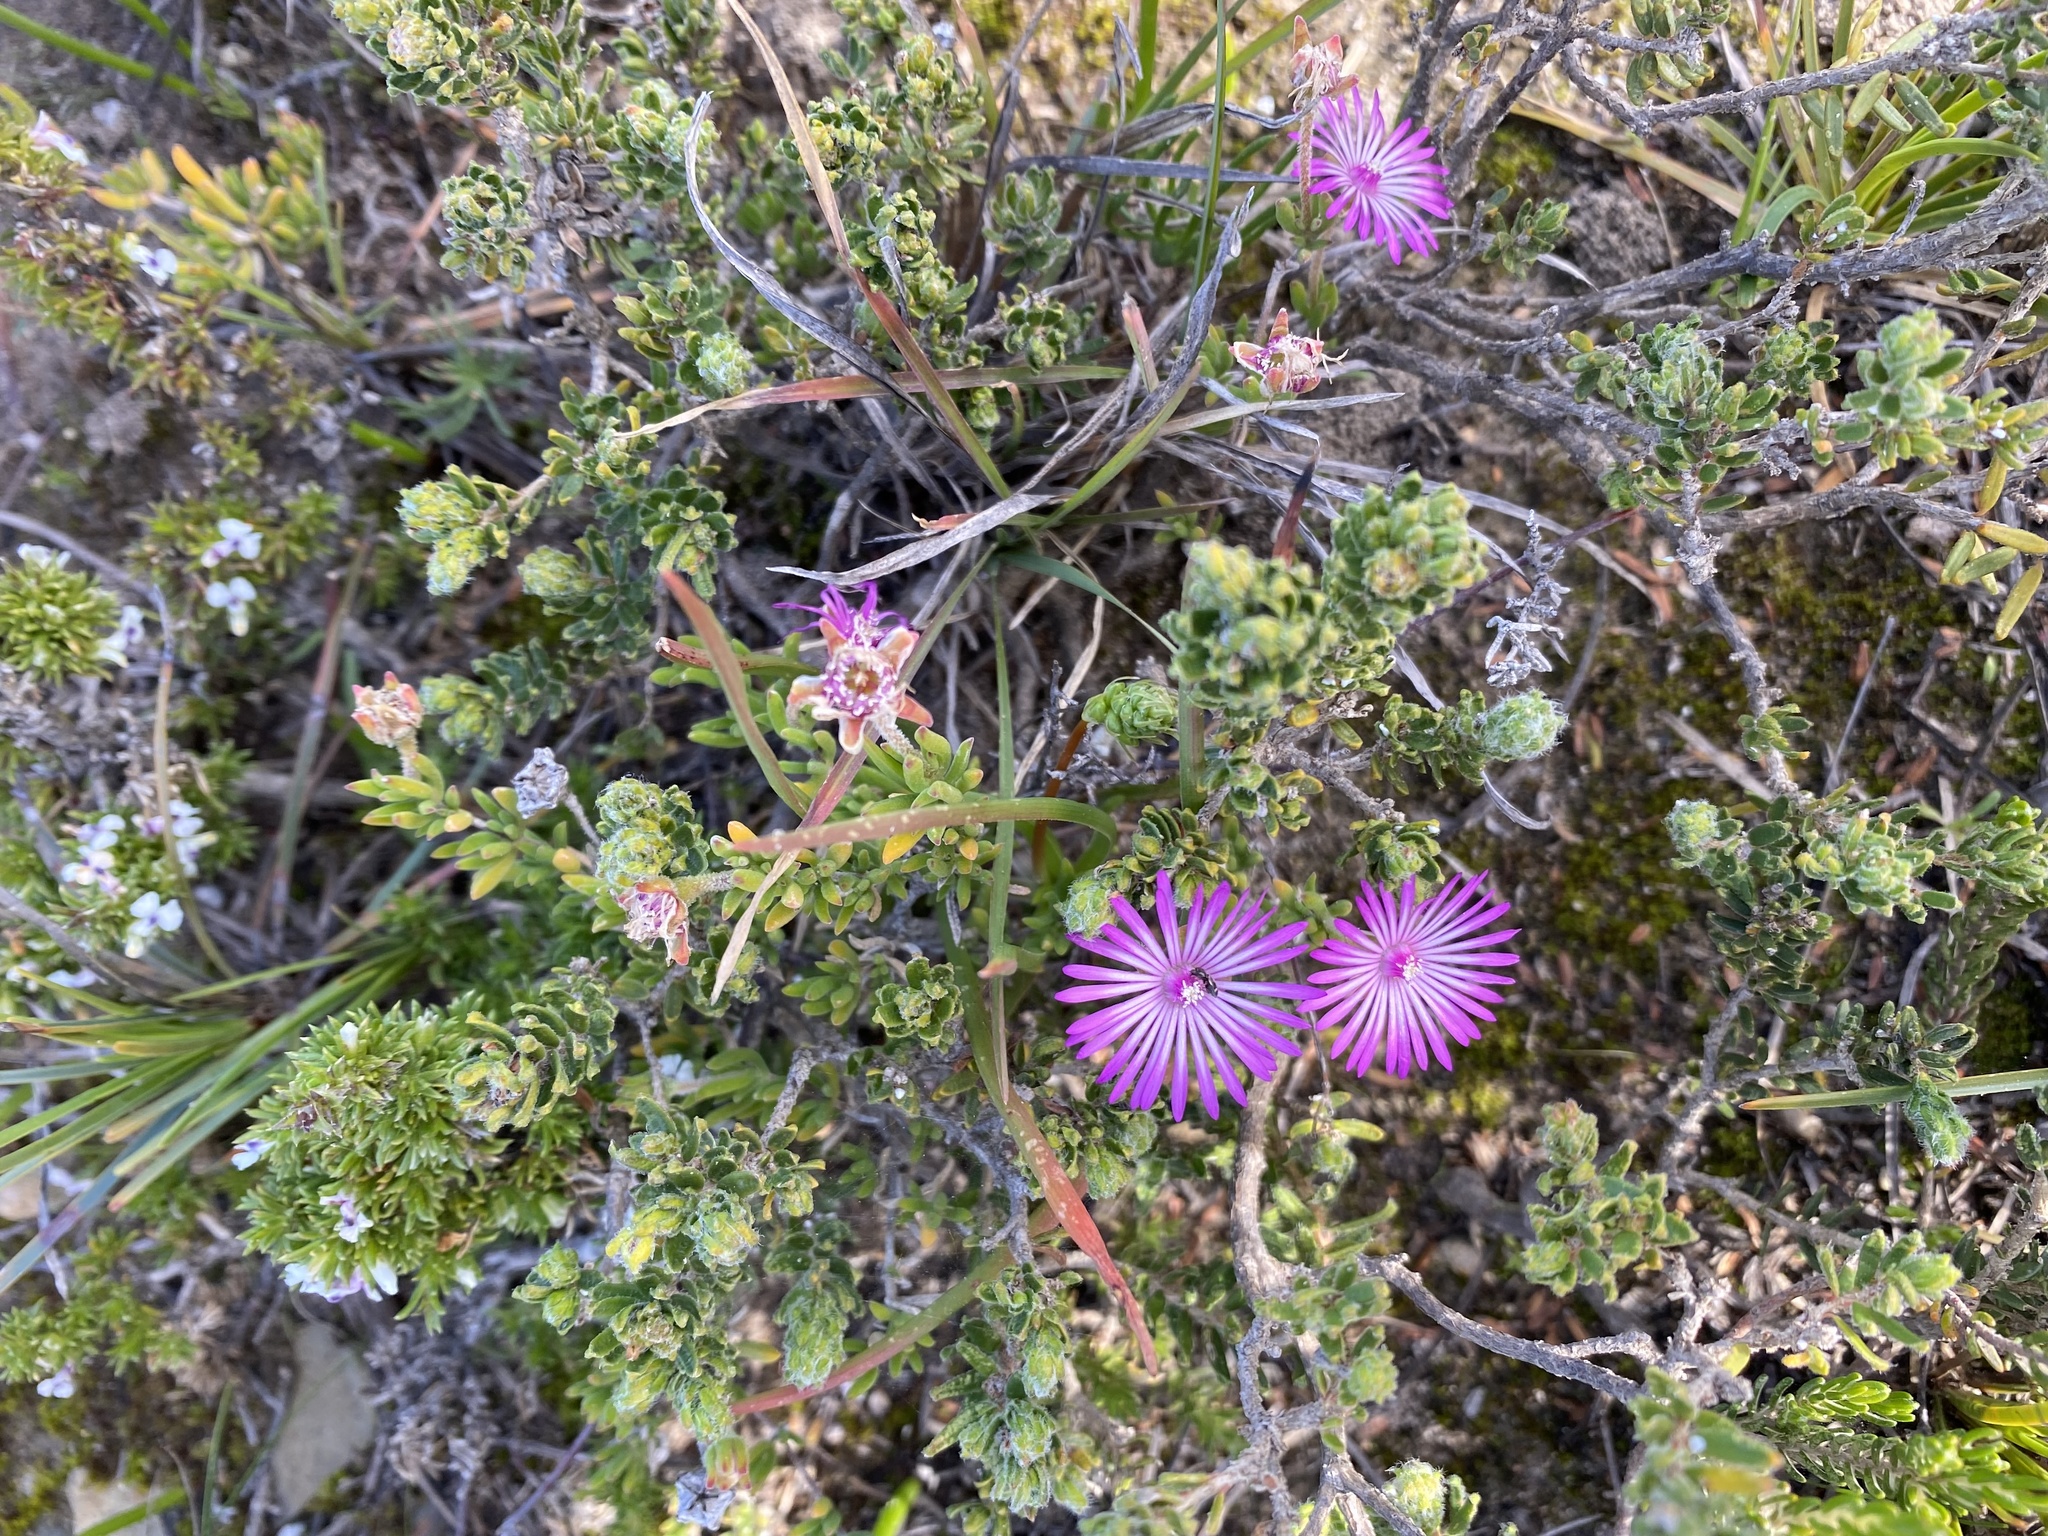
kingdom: Plantae
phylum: Tracheophyta
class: Magnoliopsida
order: Caryophyllales
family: Aizoaceae
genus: Drosanthemum
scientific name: Drosanthemum floribundum
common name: Pale dewplant
